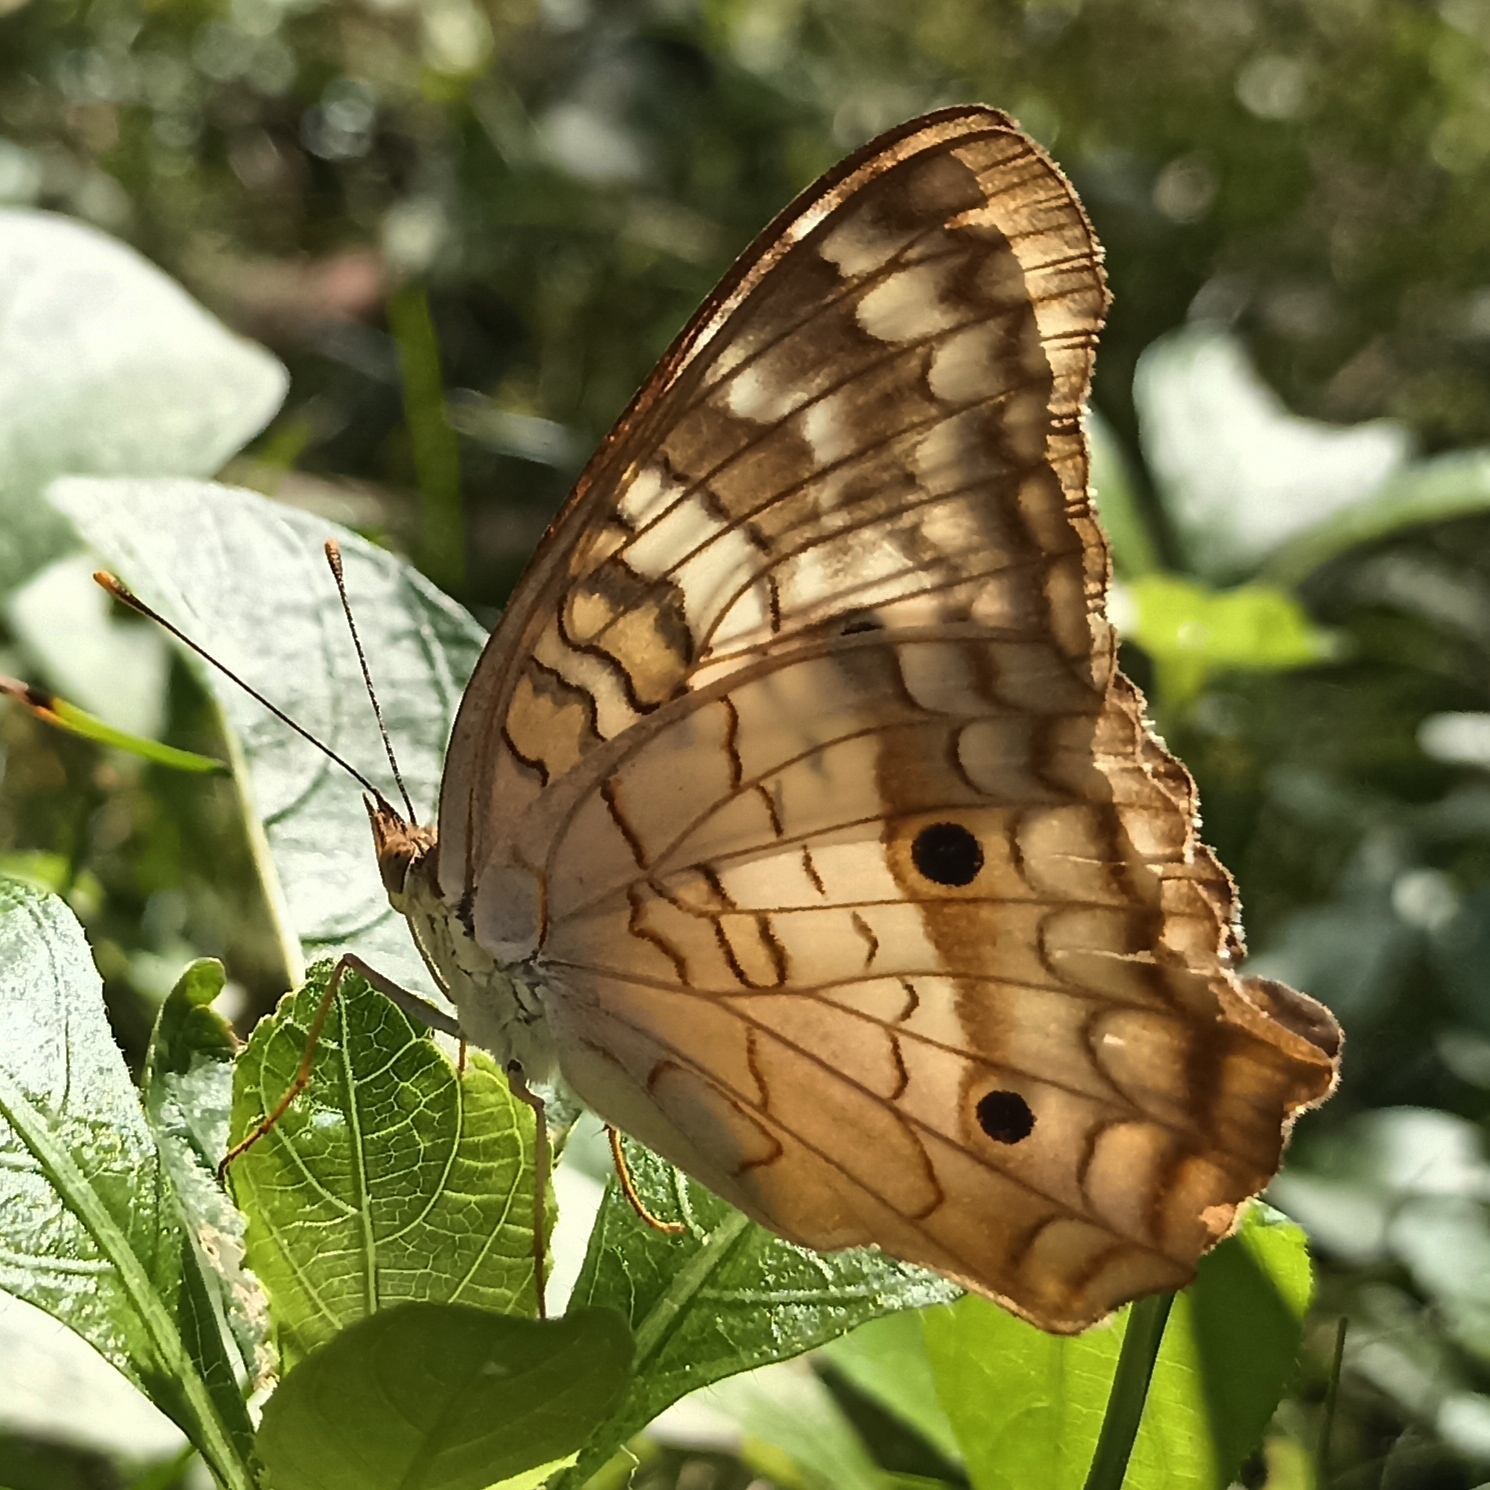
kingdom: Animalia
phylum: Arthropoda
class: Insecta
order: Lepidoptera
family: Nymphalidae
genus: Anartia
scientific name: Anartia jatrophae
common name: White peacock
